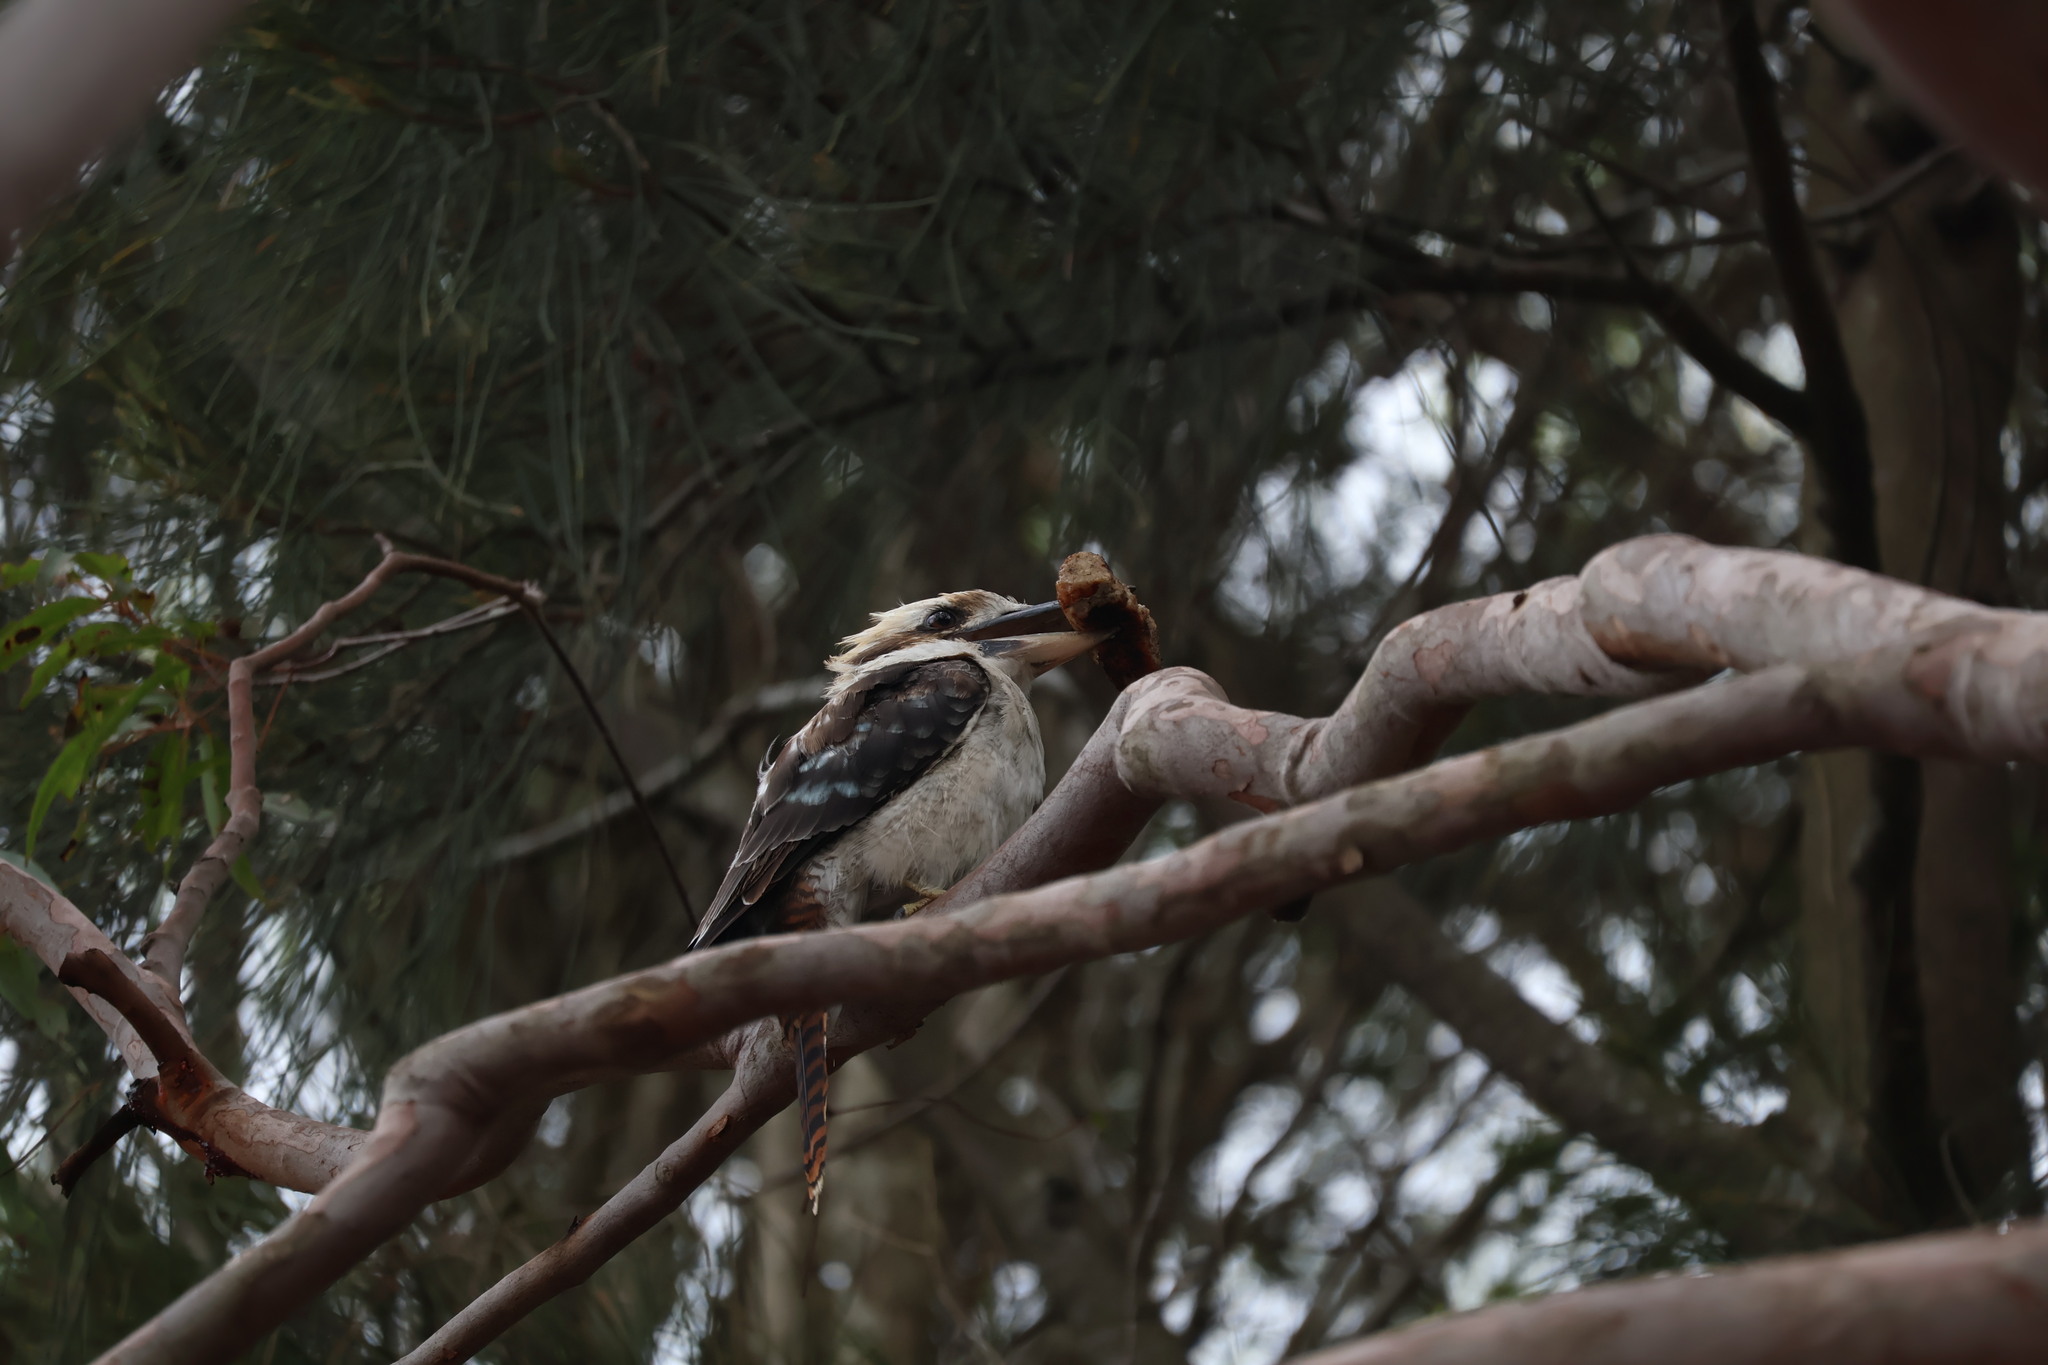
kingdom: Animalia
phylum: Chordata
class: Aves
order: Coraciiformes
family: Alcedinidae
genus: Dacelo
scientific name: Dacelo novaeguineae
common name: Laughing kookaburra
